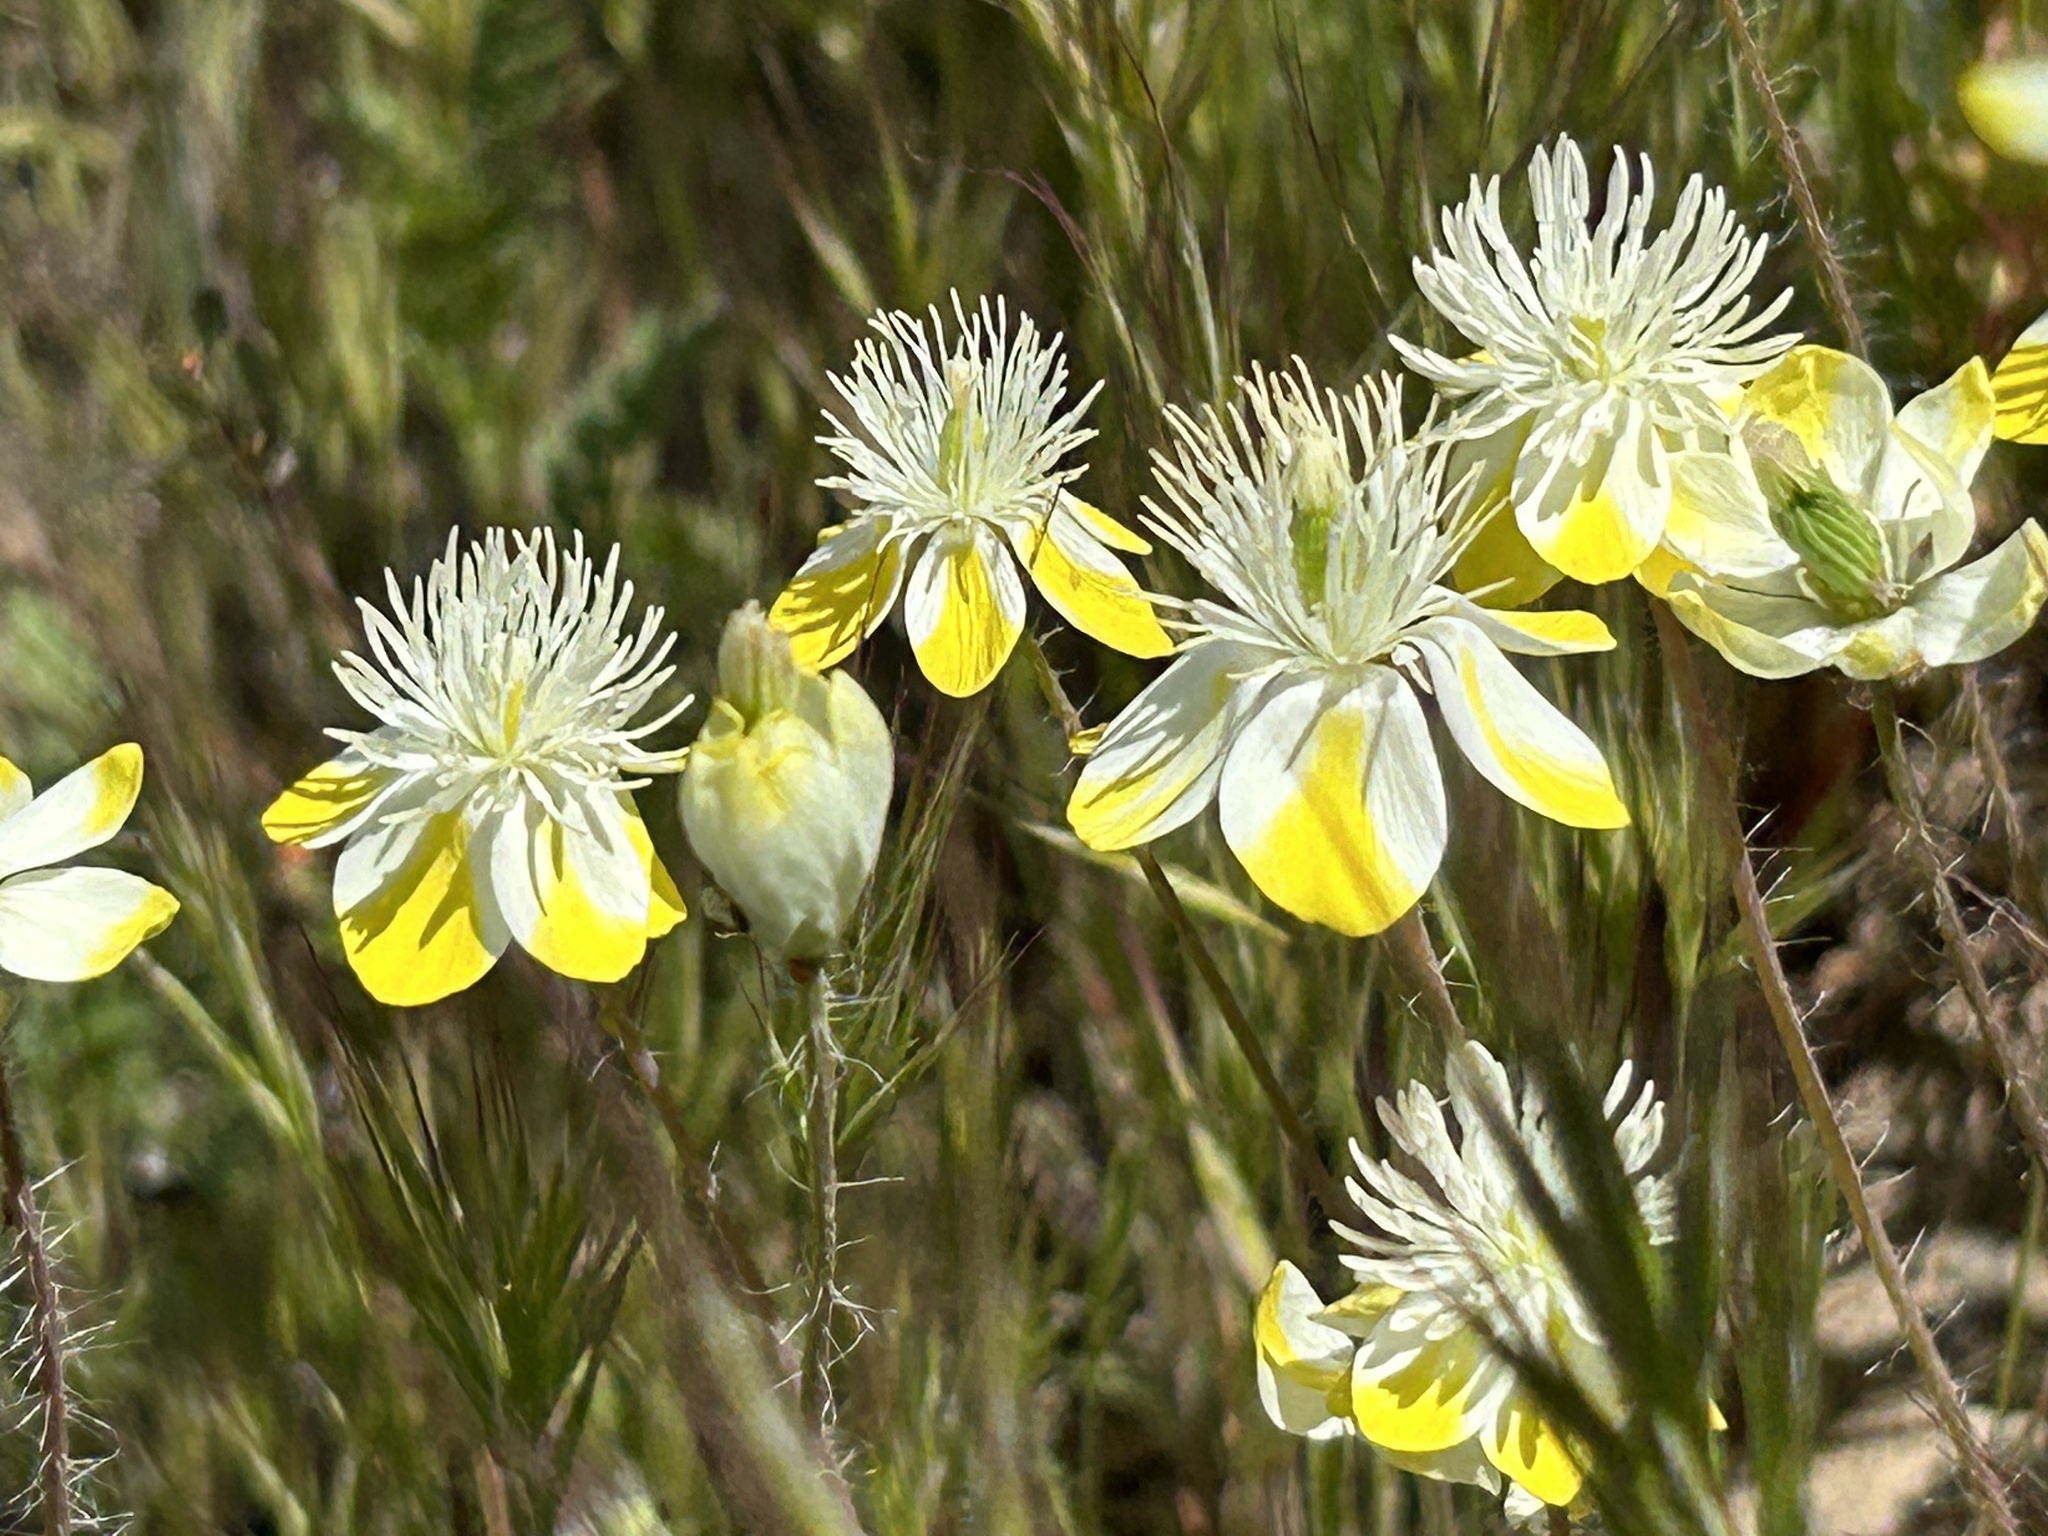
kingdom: Plantae
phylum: Tracheophyta
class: Magnoliopsida
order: Ranunculales
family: Papaveraceae
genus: Platystemon
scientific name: Platystemon californicus
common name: Cream-cups
